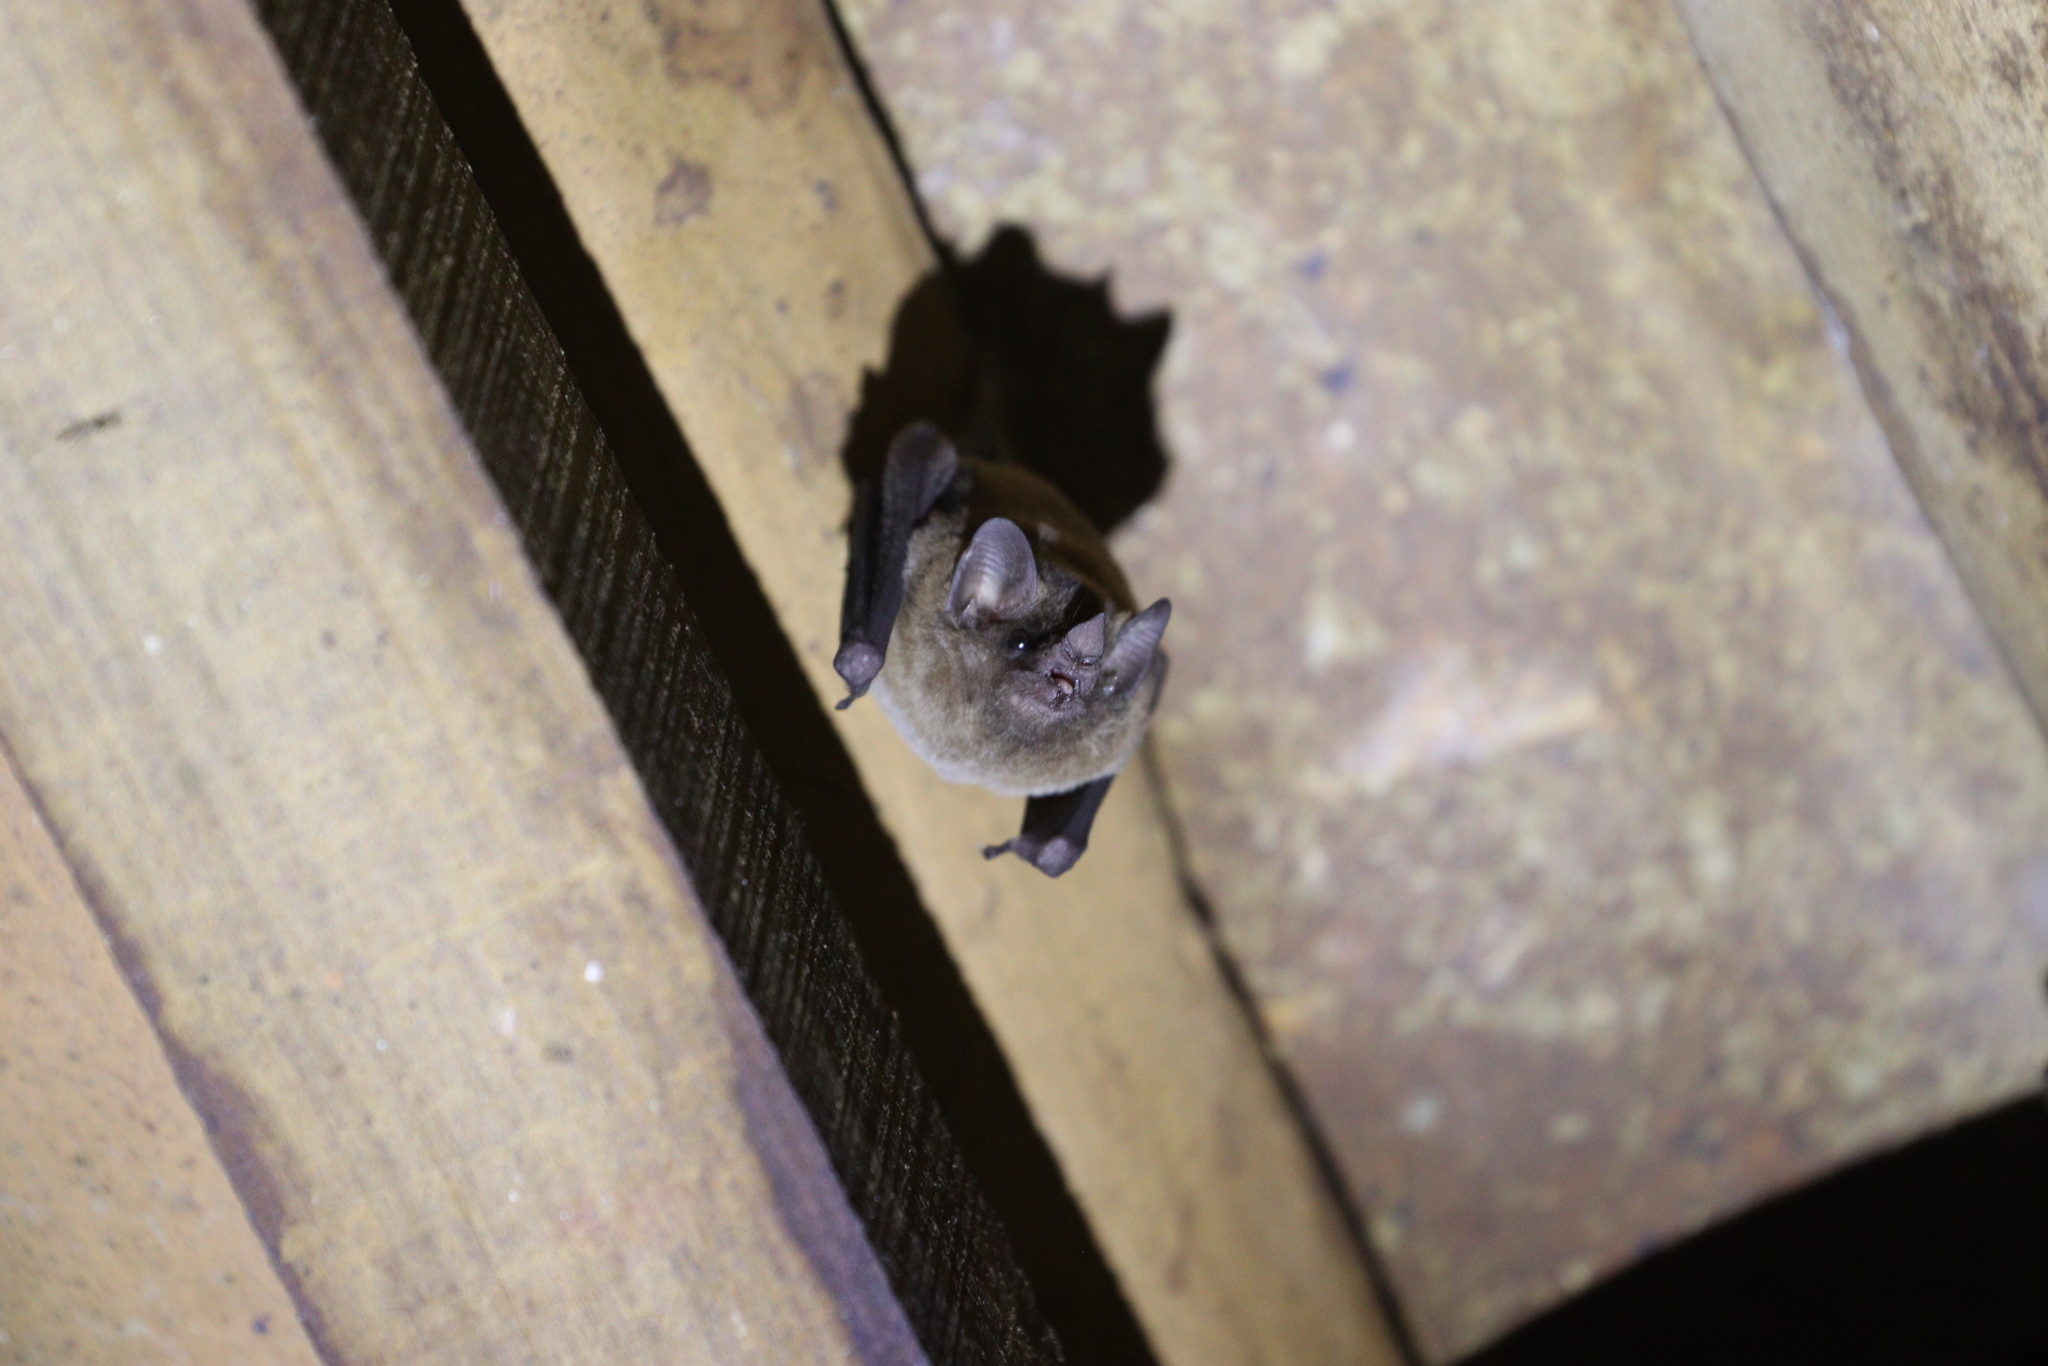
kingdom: Animalia
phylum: Chordata
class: Mammalia
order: Chiroptera
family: Phyllostomidae
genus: Glossophaga
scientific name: Glossophaga soricina
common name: Pallas's long-tongued bat
